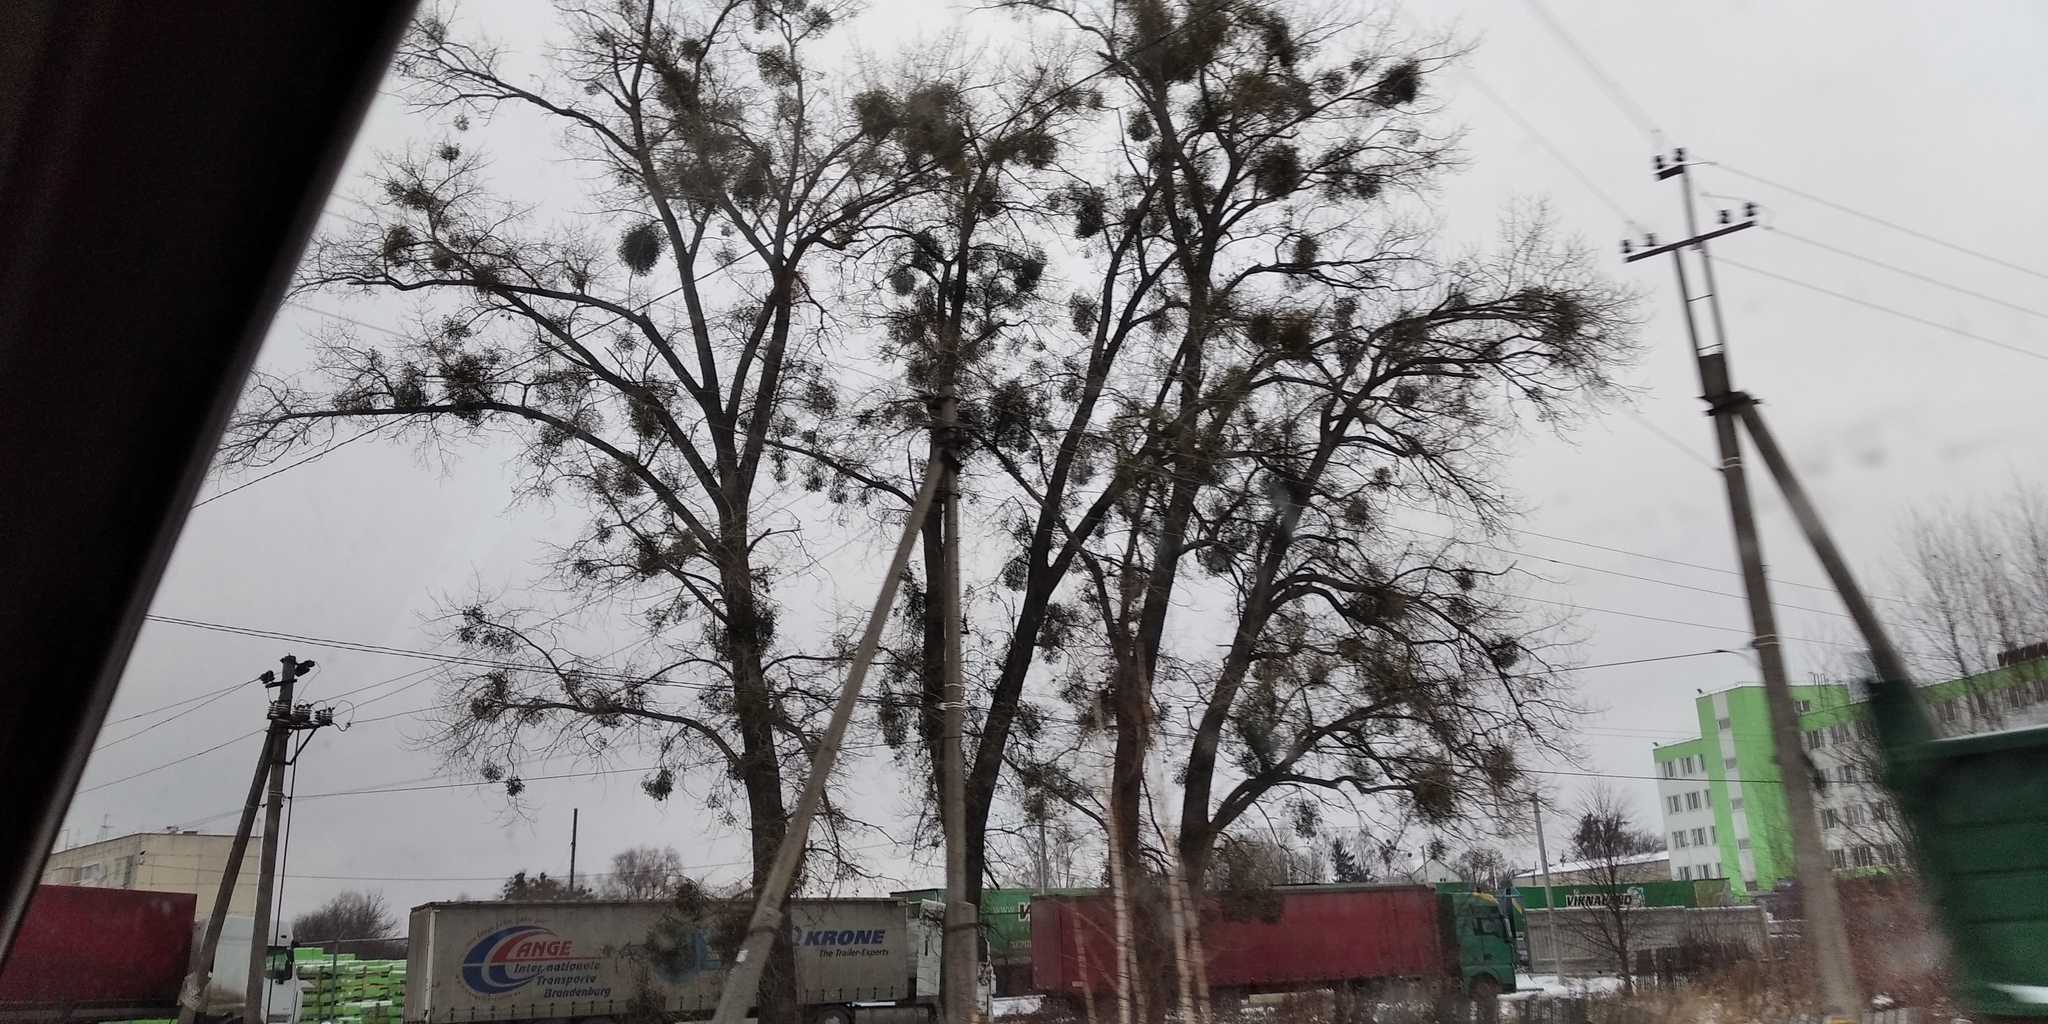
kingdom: Plantae
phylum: Tracheophyta
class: Magnoliopsida
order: Santalales
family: Viscaceae
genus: Viscum
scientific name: Viscum album
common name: Mistletoe
